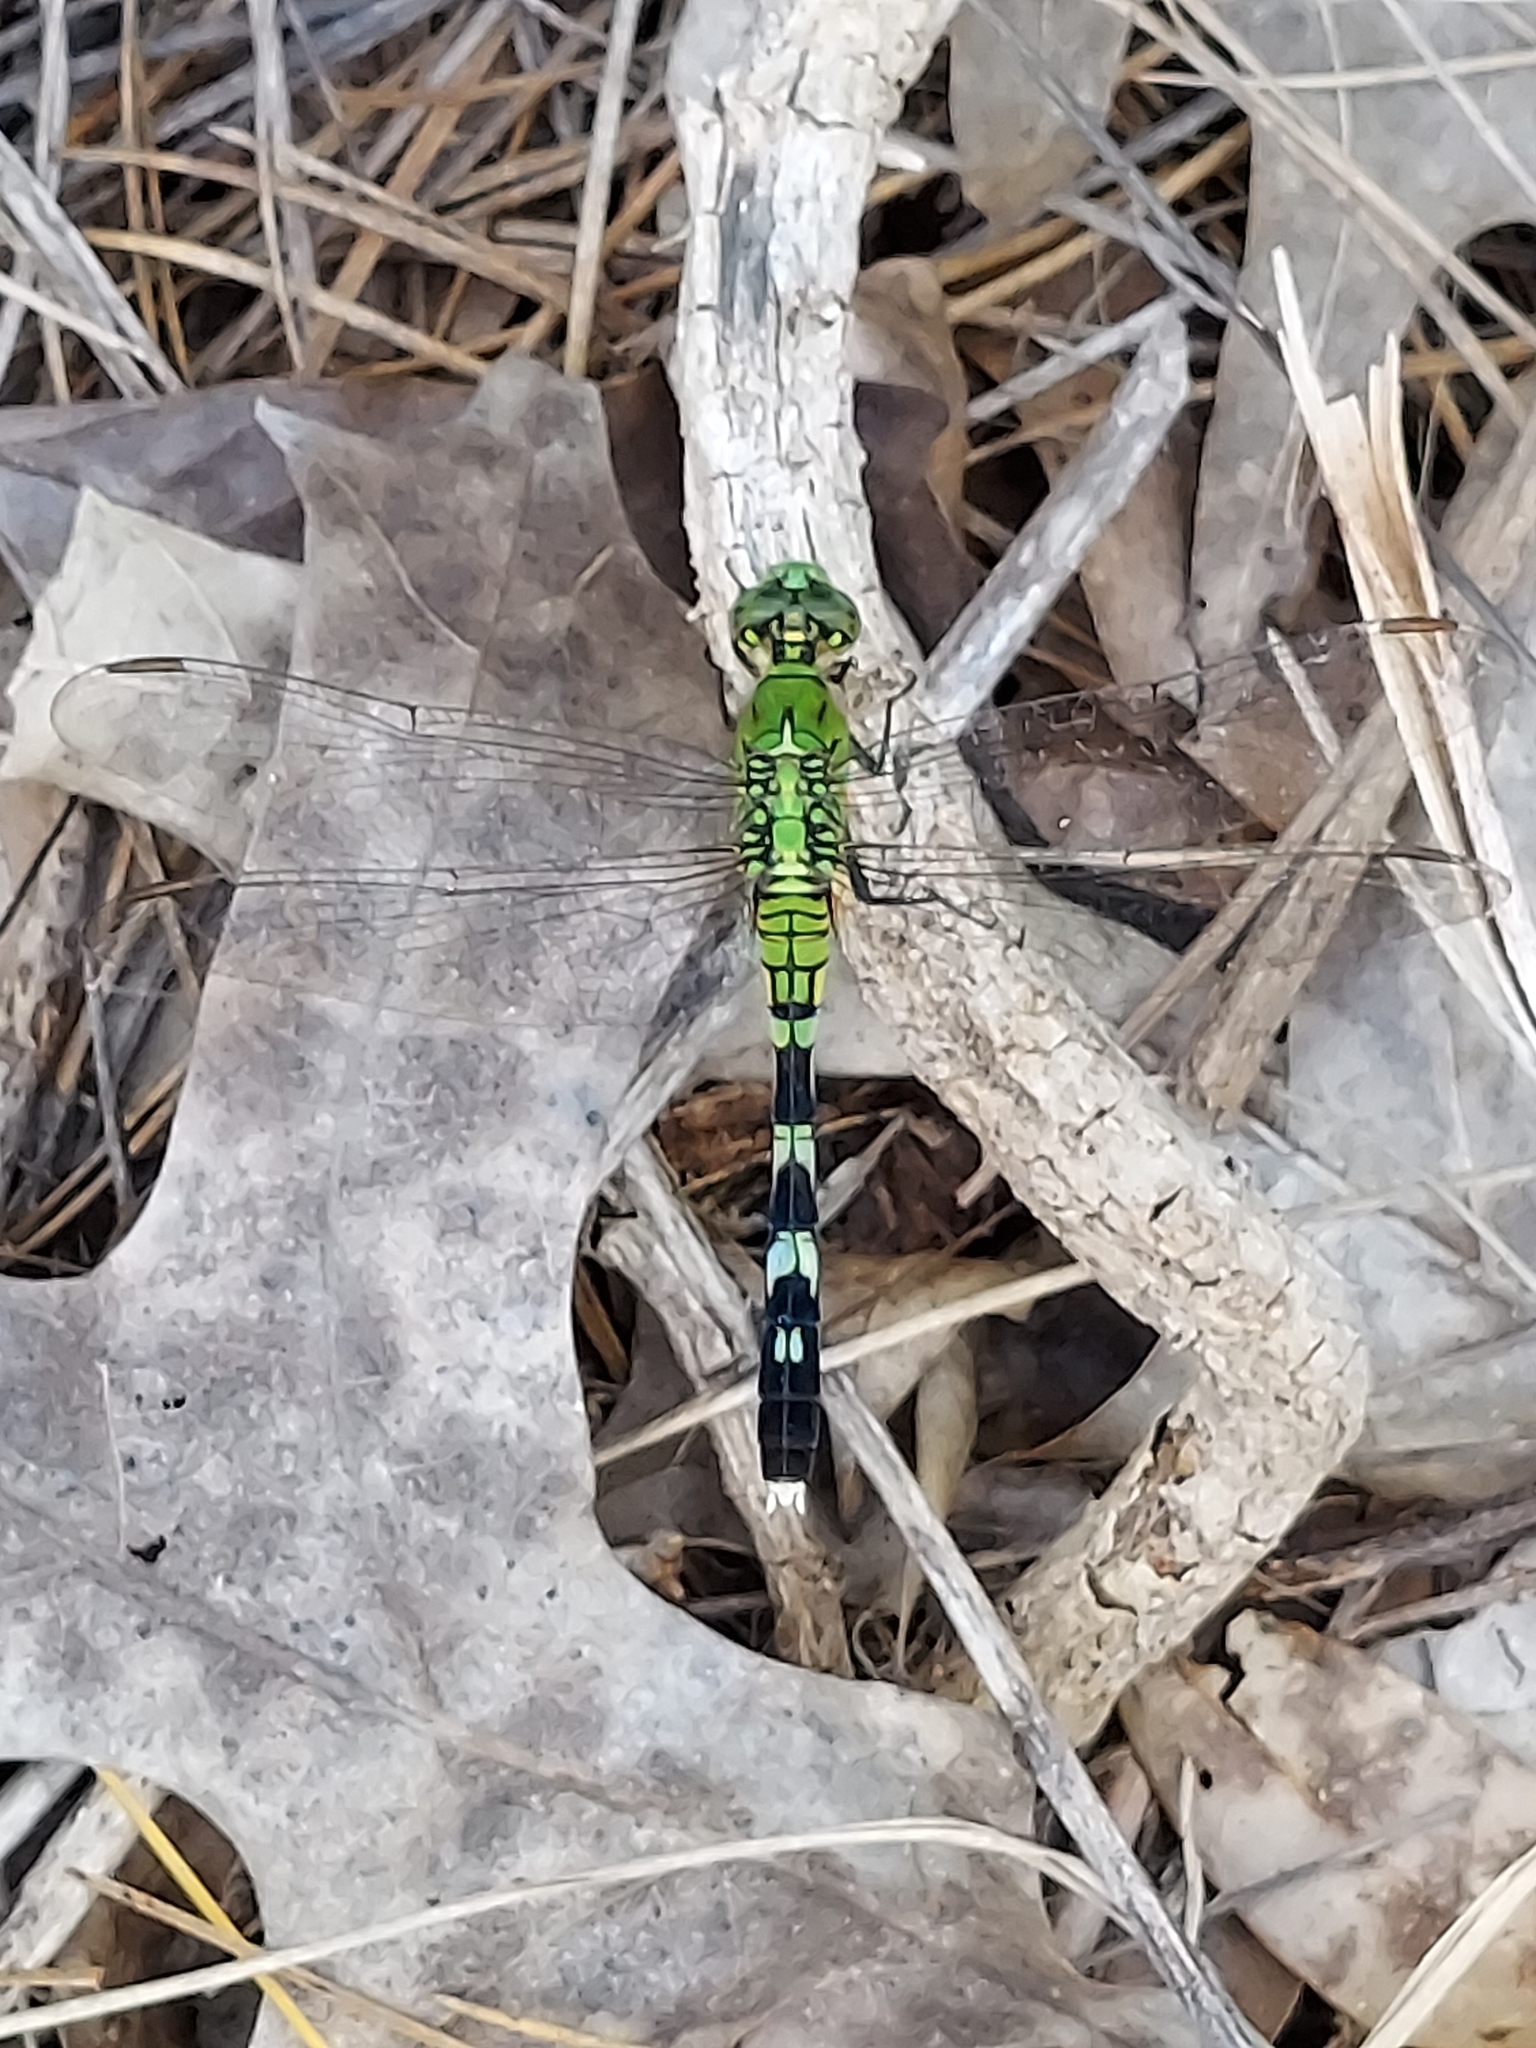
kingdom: Animalia
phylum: Arthropoda
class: Insecta
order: Odonata
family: Libellulidae
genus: Erythemis
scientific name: Erythemis simplicicollis
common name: Eastern pondhawk
